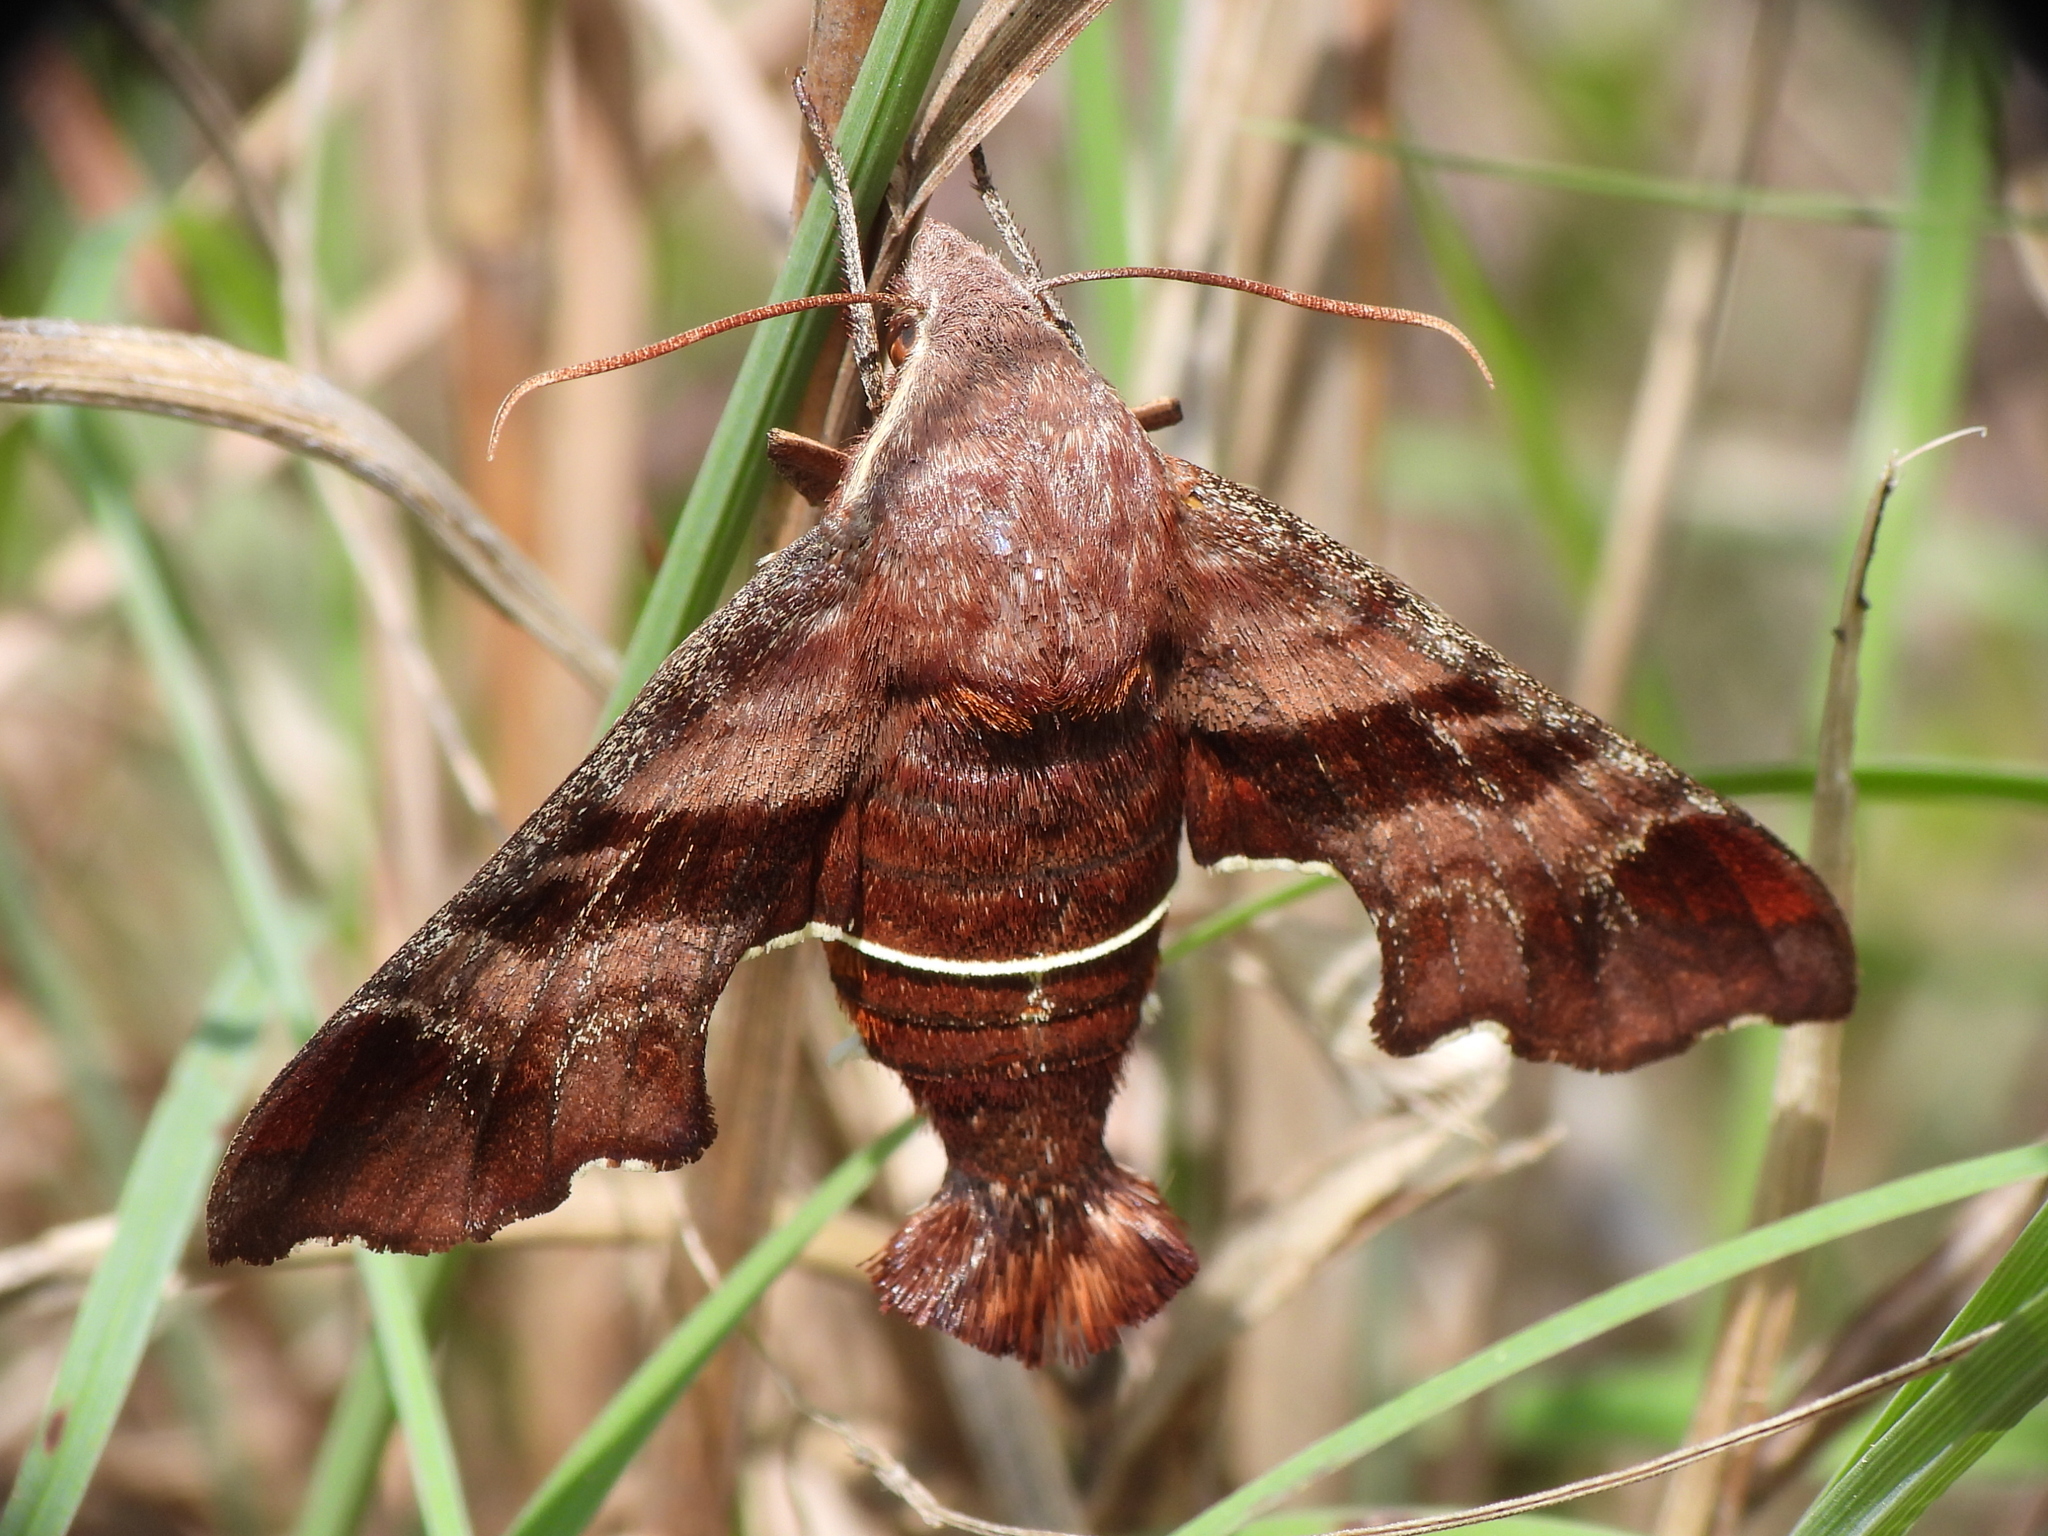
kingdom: Animalia
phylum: Arthropoda
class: Insecta
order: Lepidoptera
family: Sphingidae
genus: Amphion
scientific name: Amphion floridensis
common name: Nessus sphinx
